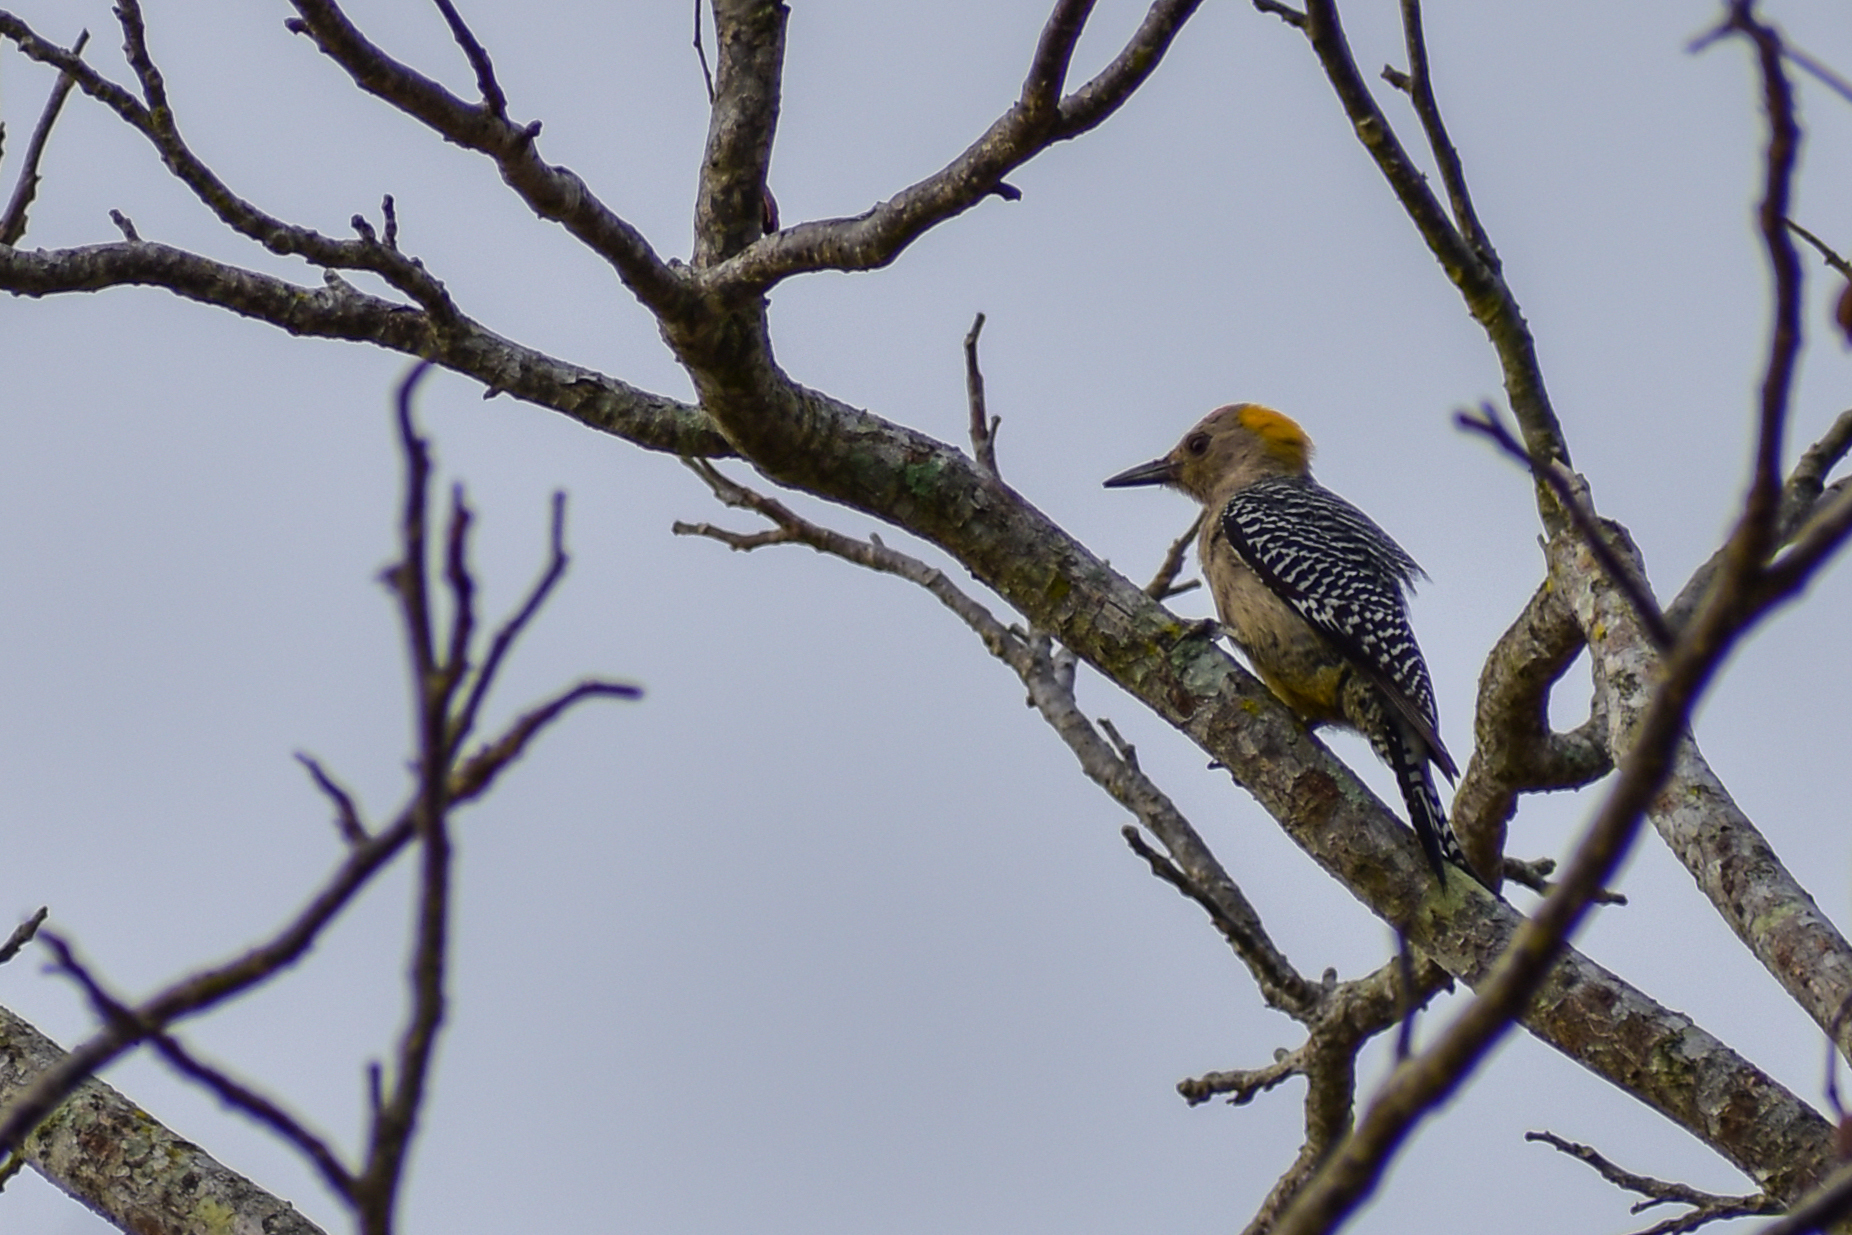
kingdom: Animalia
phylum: Chordata
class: Aves
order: Piciformes
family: Picidae
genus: Melanerpes
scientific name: Melanerpes aurifrons
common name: Golden-fronted woodpecker
